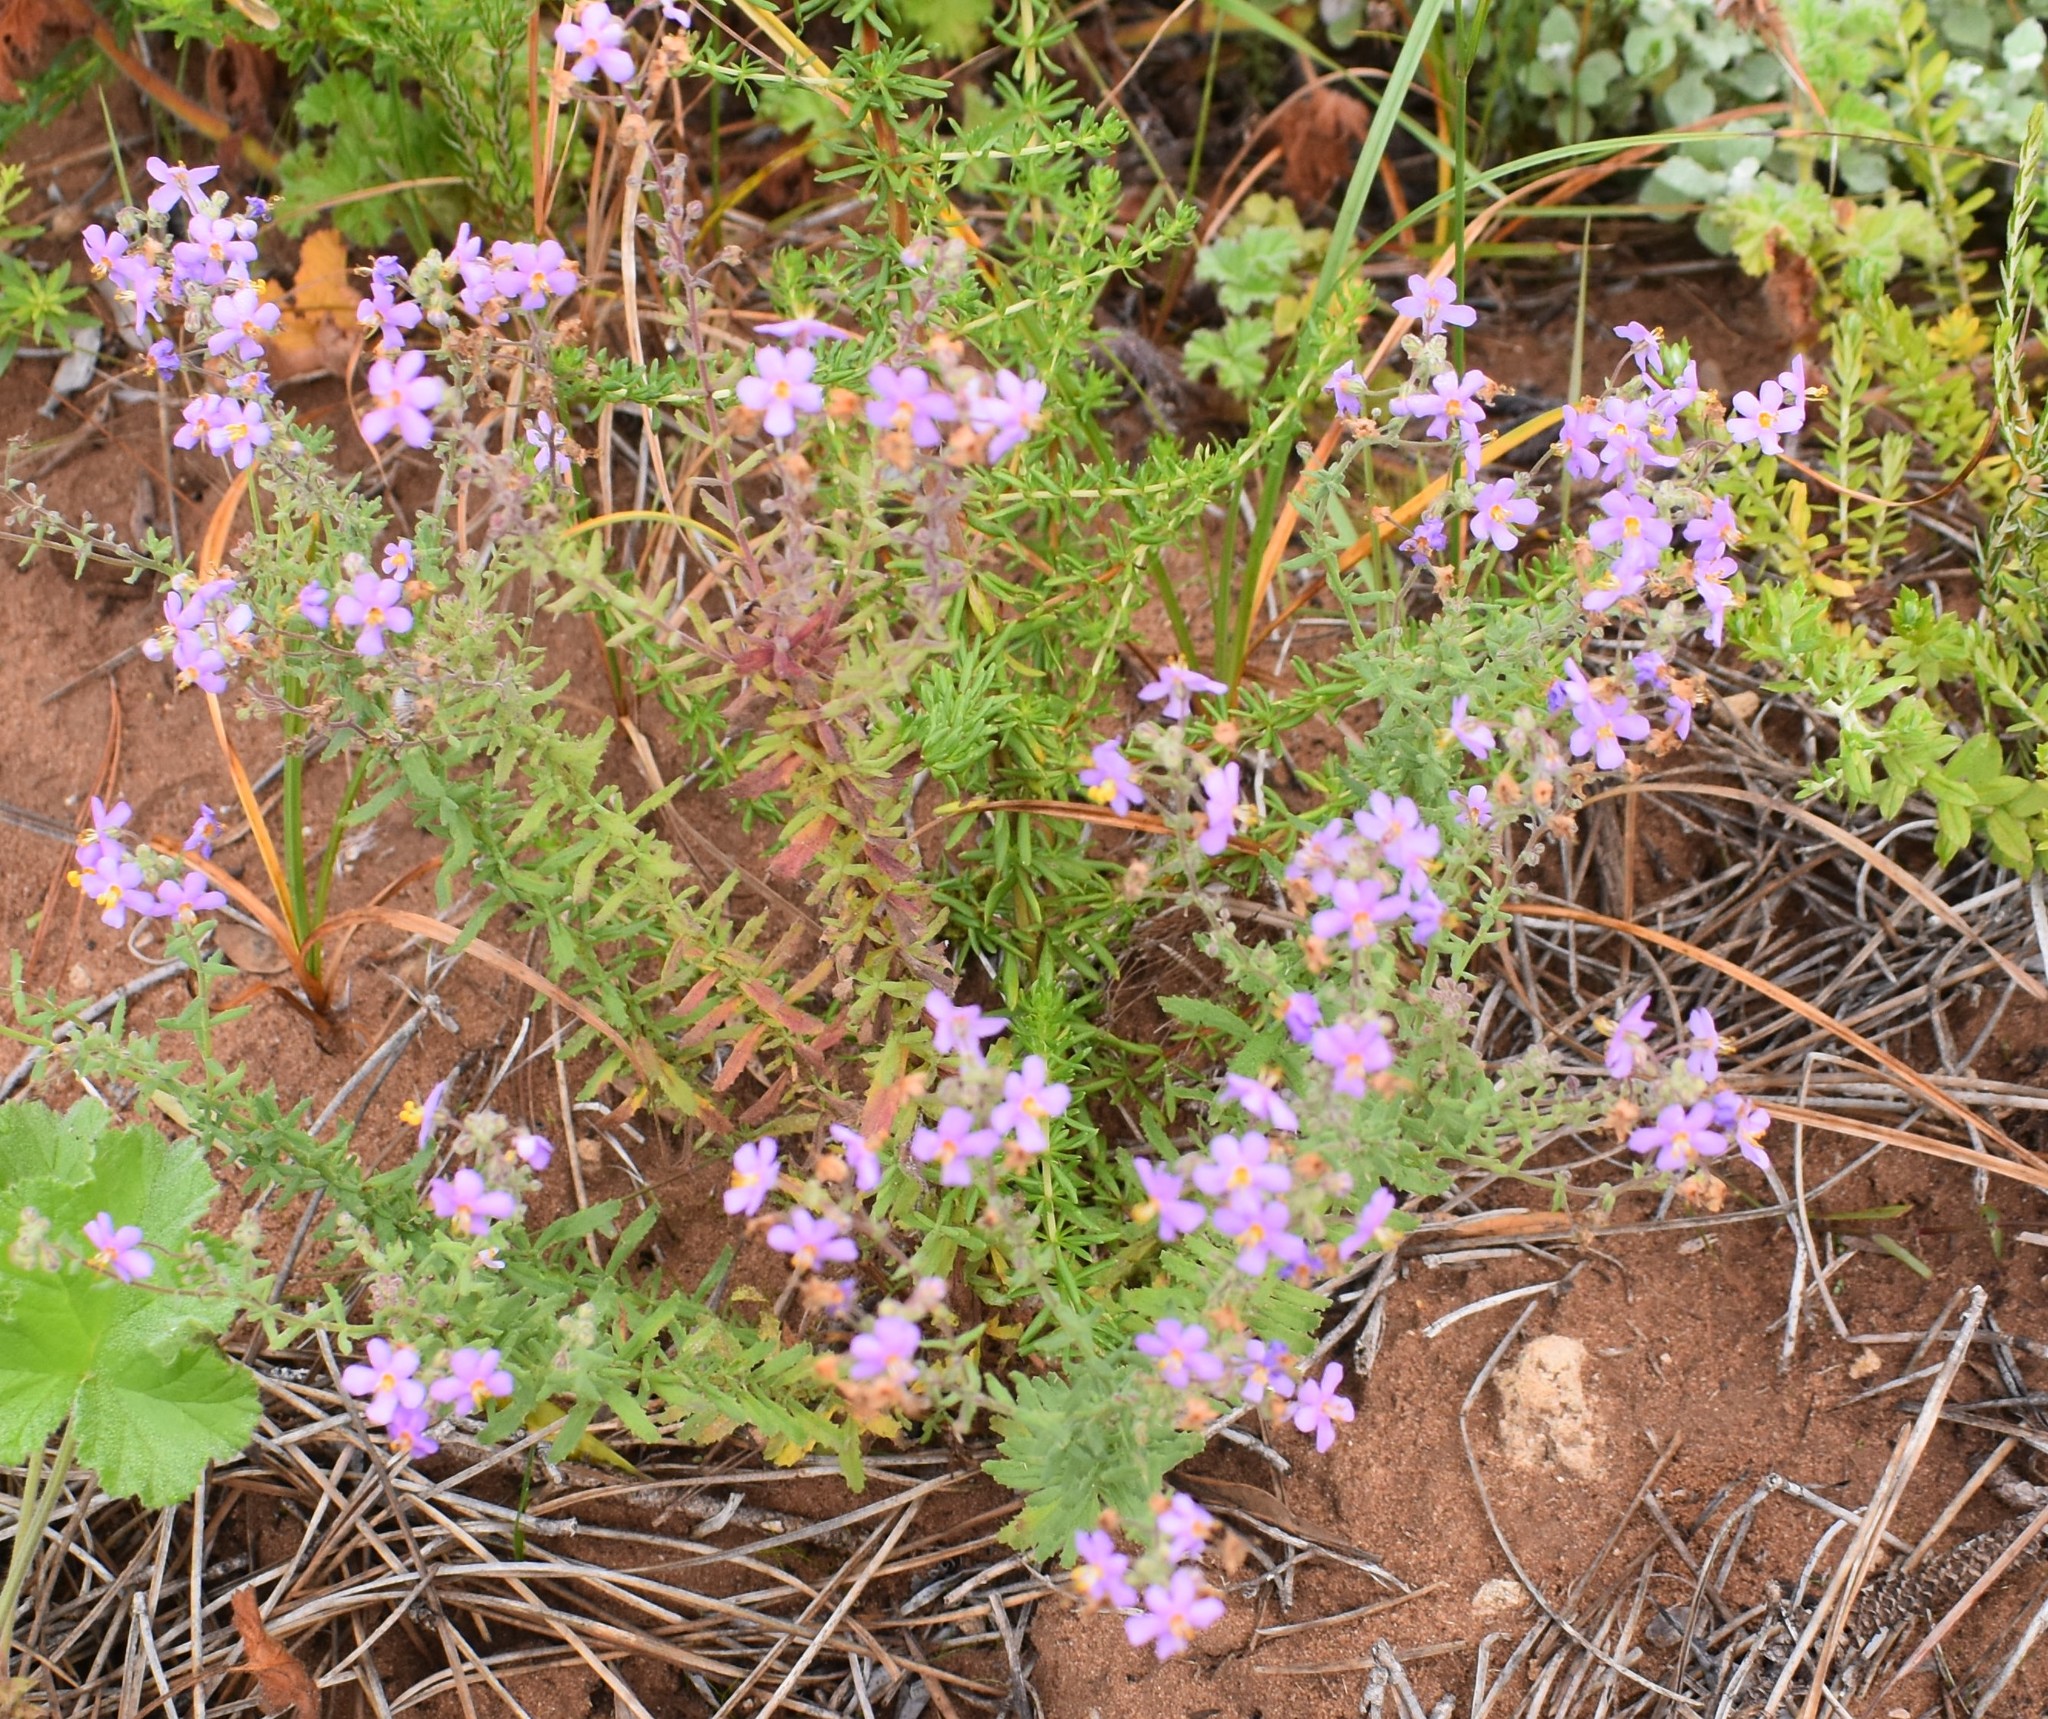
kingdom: Plantae
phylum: Tracheophyta
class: Magnoliopsida
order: Lamiales
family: Scrophulariaceae
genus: Chaenostoma
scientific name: Chaenostoma caeruleum
